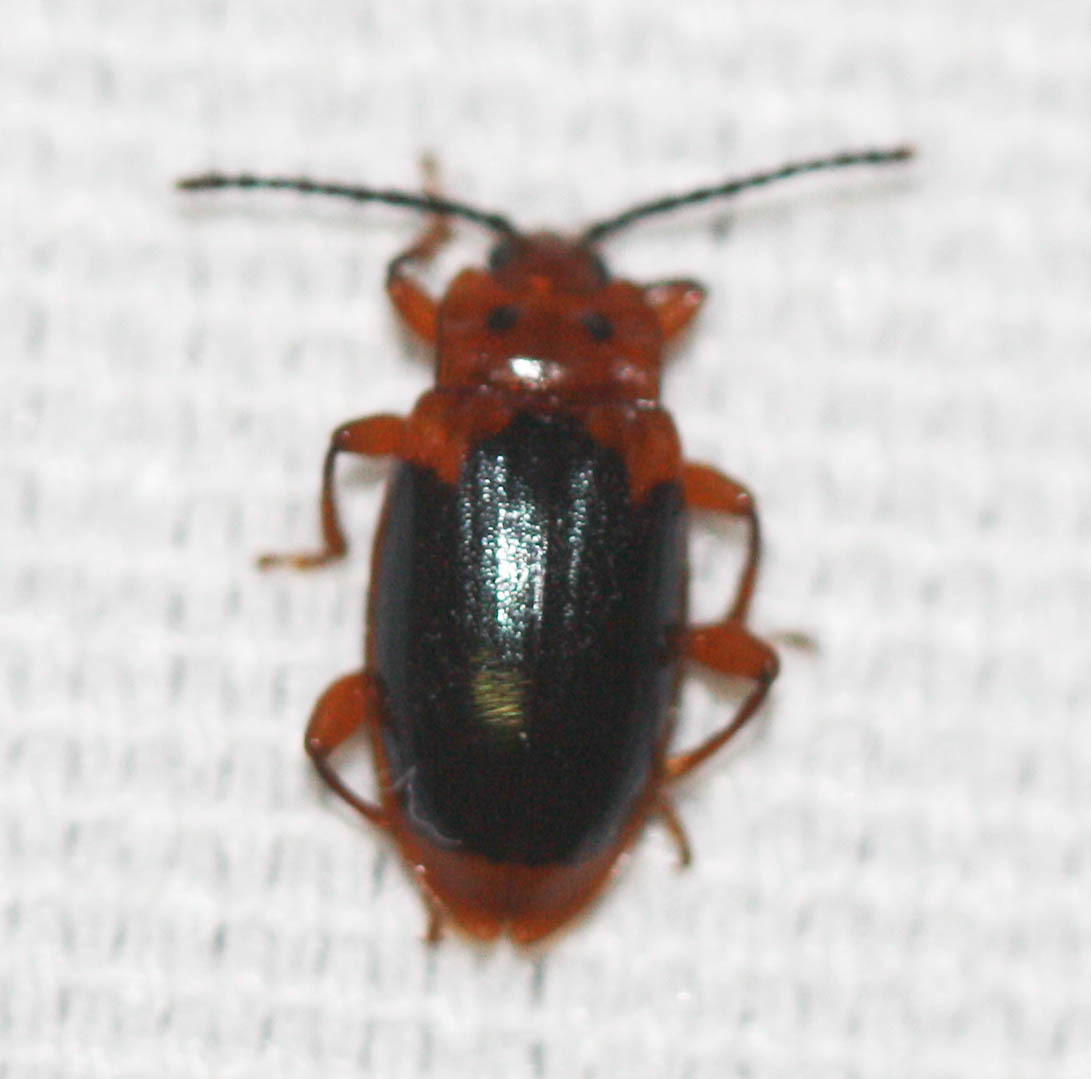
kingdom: Animalia
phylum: Arthropoda
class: Insecta
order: Coleoptera
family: Endomychidae
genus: Aphorista
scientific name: Aphorista laeta
